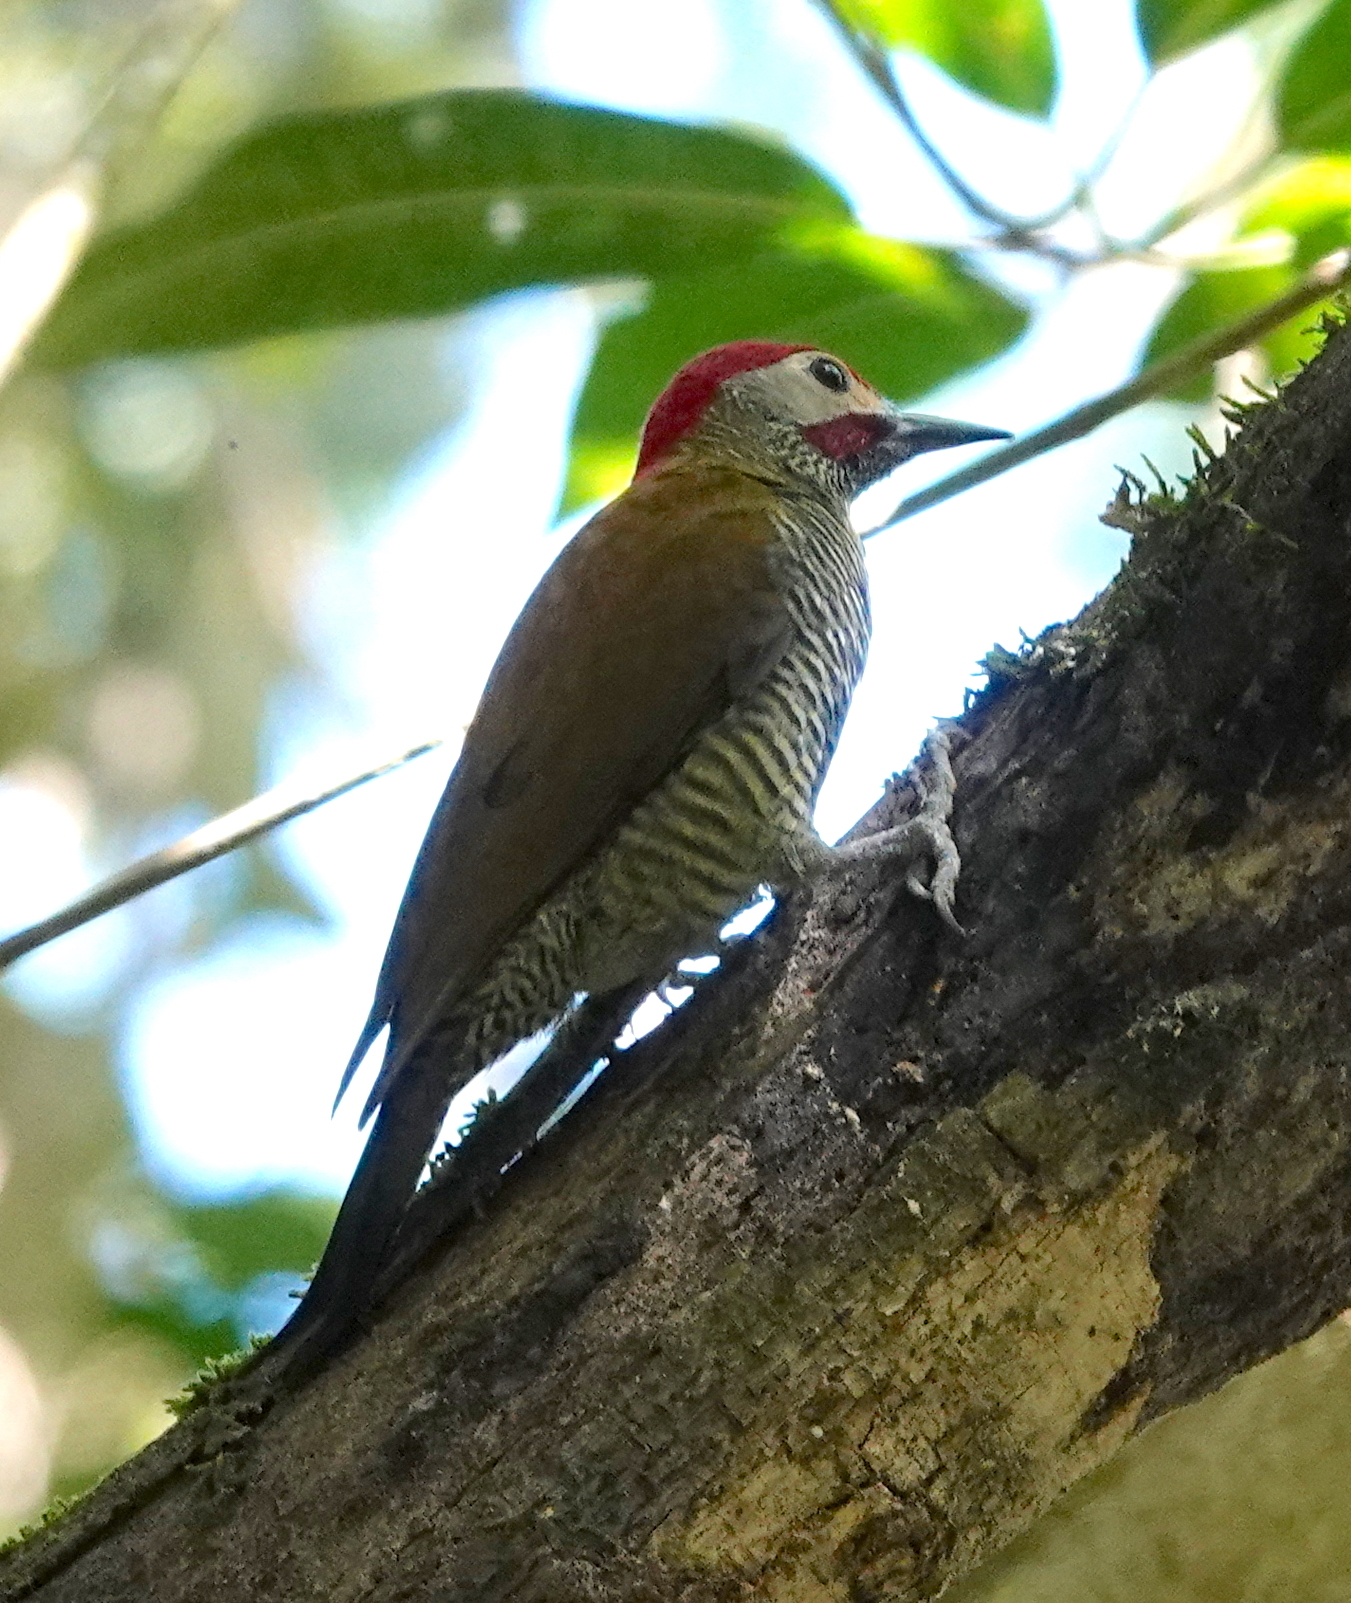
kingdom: Animalia
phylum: Chordata
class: Aves
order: Piciformes
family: Picidae
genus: Colaptes
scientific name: Colaptes rubiginosus
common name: Golden-olive woodpecker
